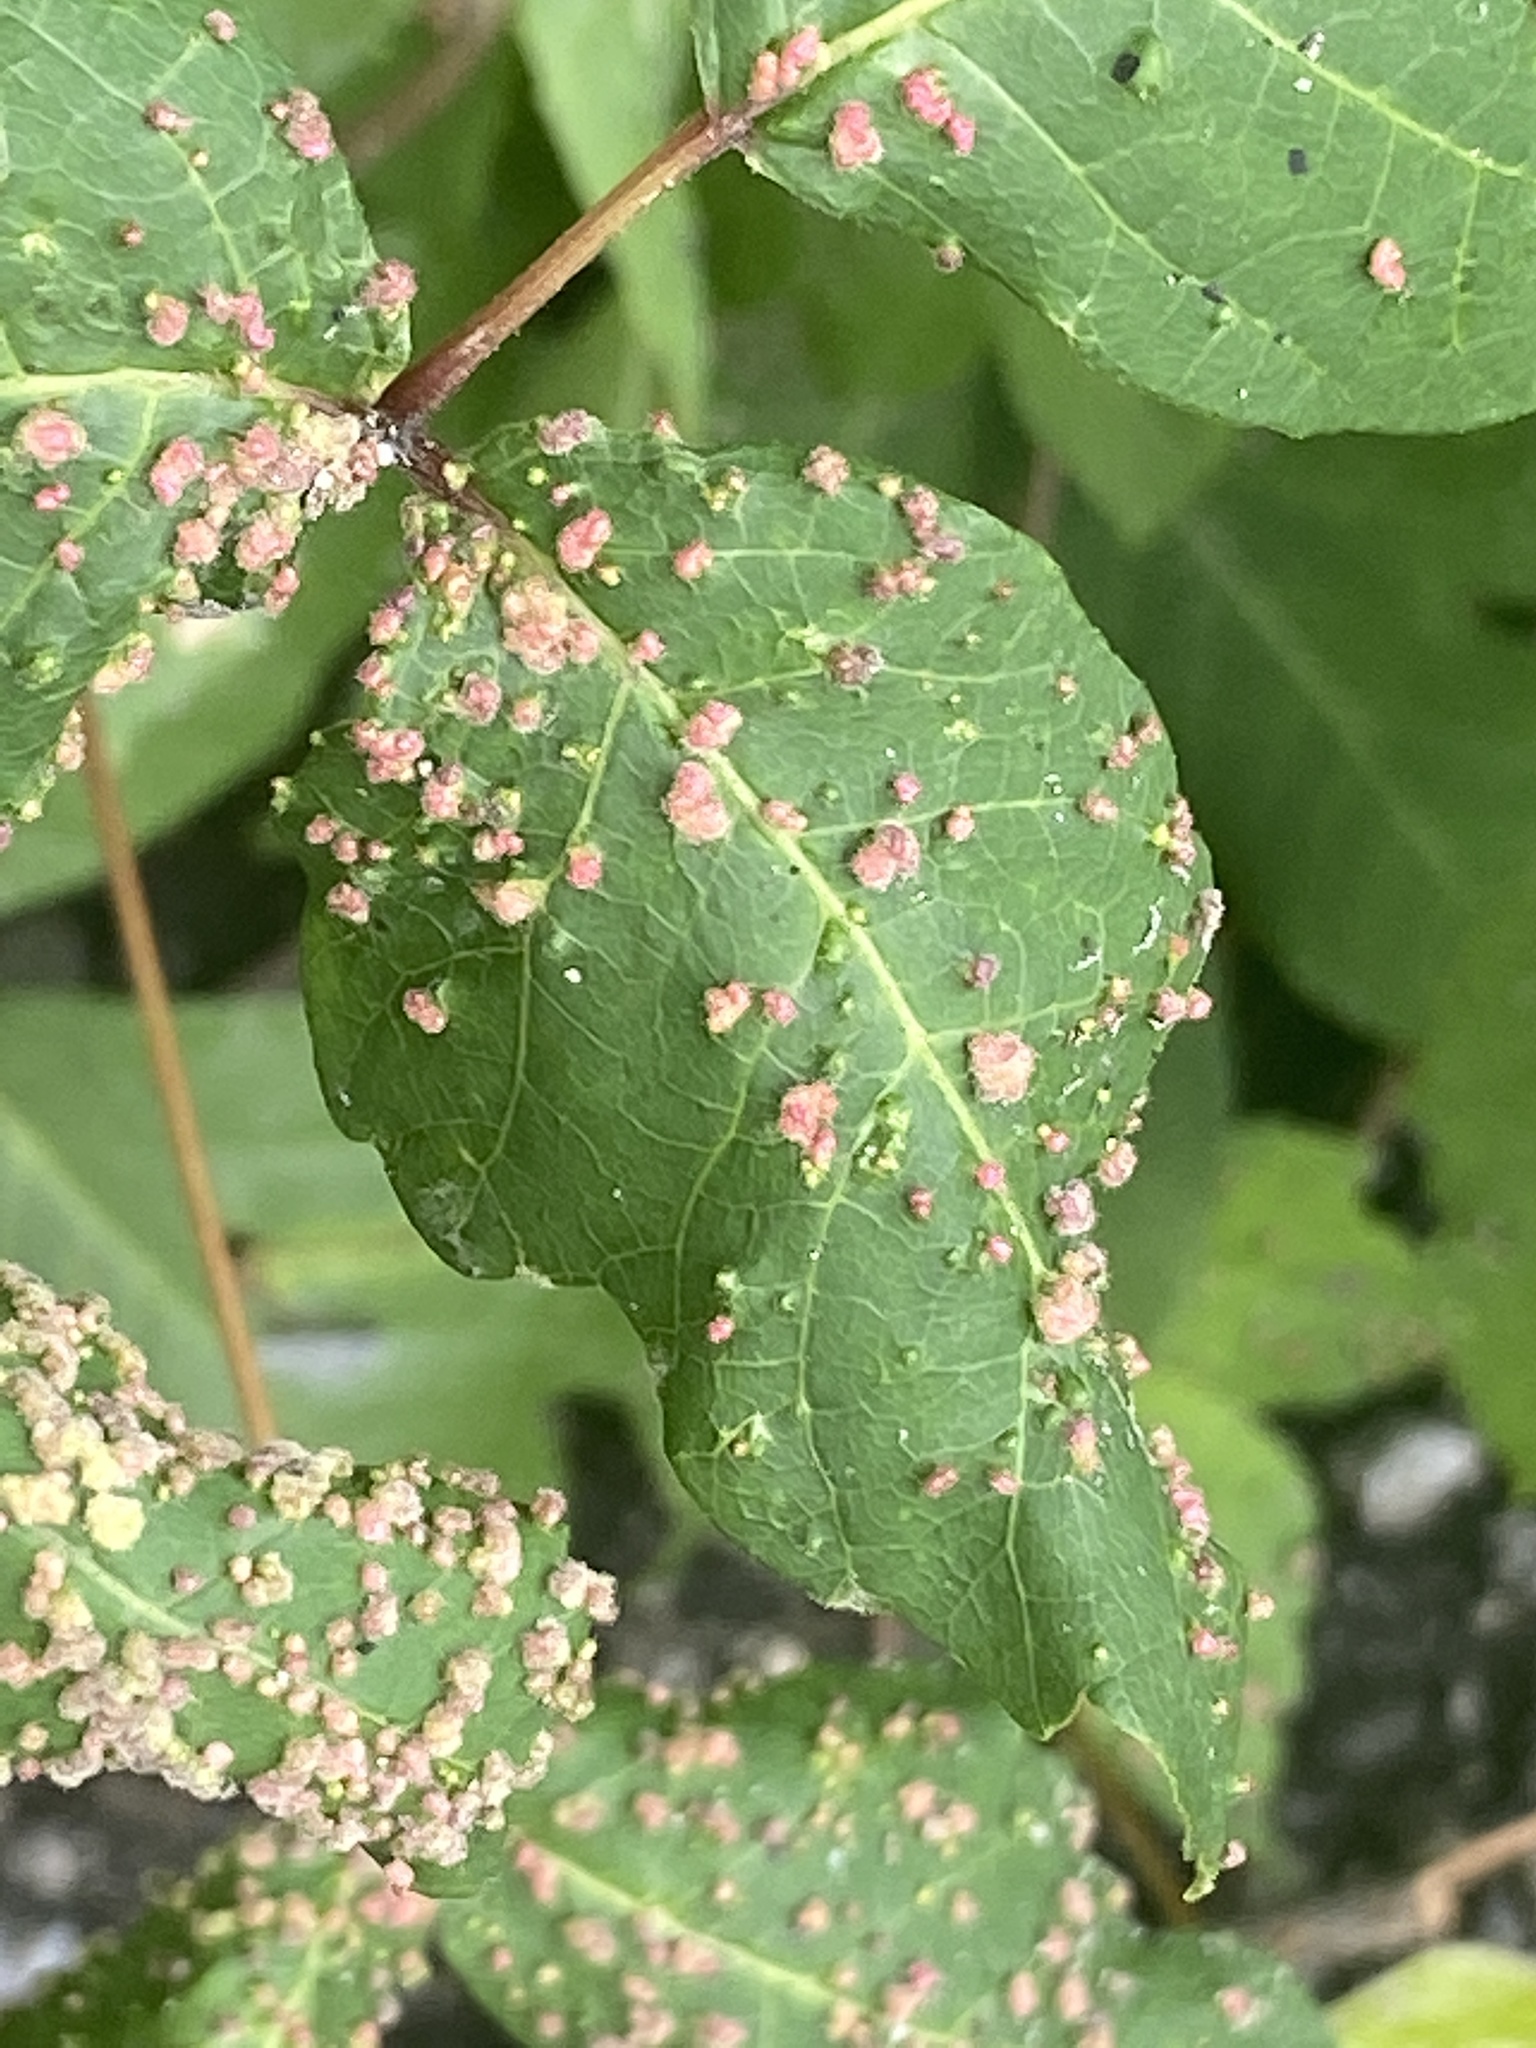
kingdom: Animalia
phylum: Arthropoda
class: Arachnida
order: Trombidiformes
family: Eriophyidae
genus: Aculops
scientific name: Aculops
